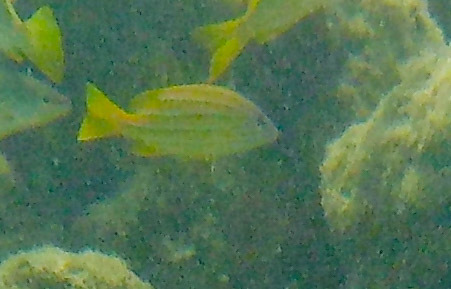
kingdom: Animalia
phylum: Chordata
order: Perciformes
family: Lutjanidae
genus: Lutjanus
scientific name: Lutjanus quinquelineatus
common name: Five-lined snapper
